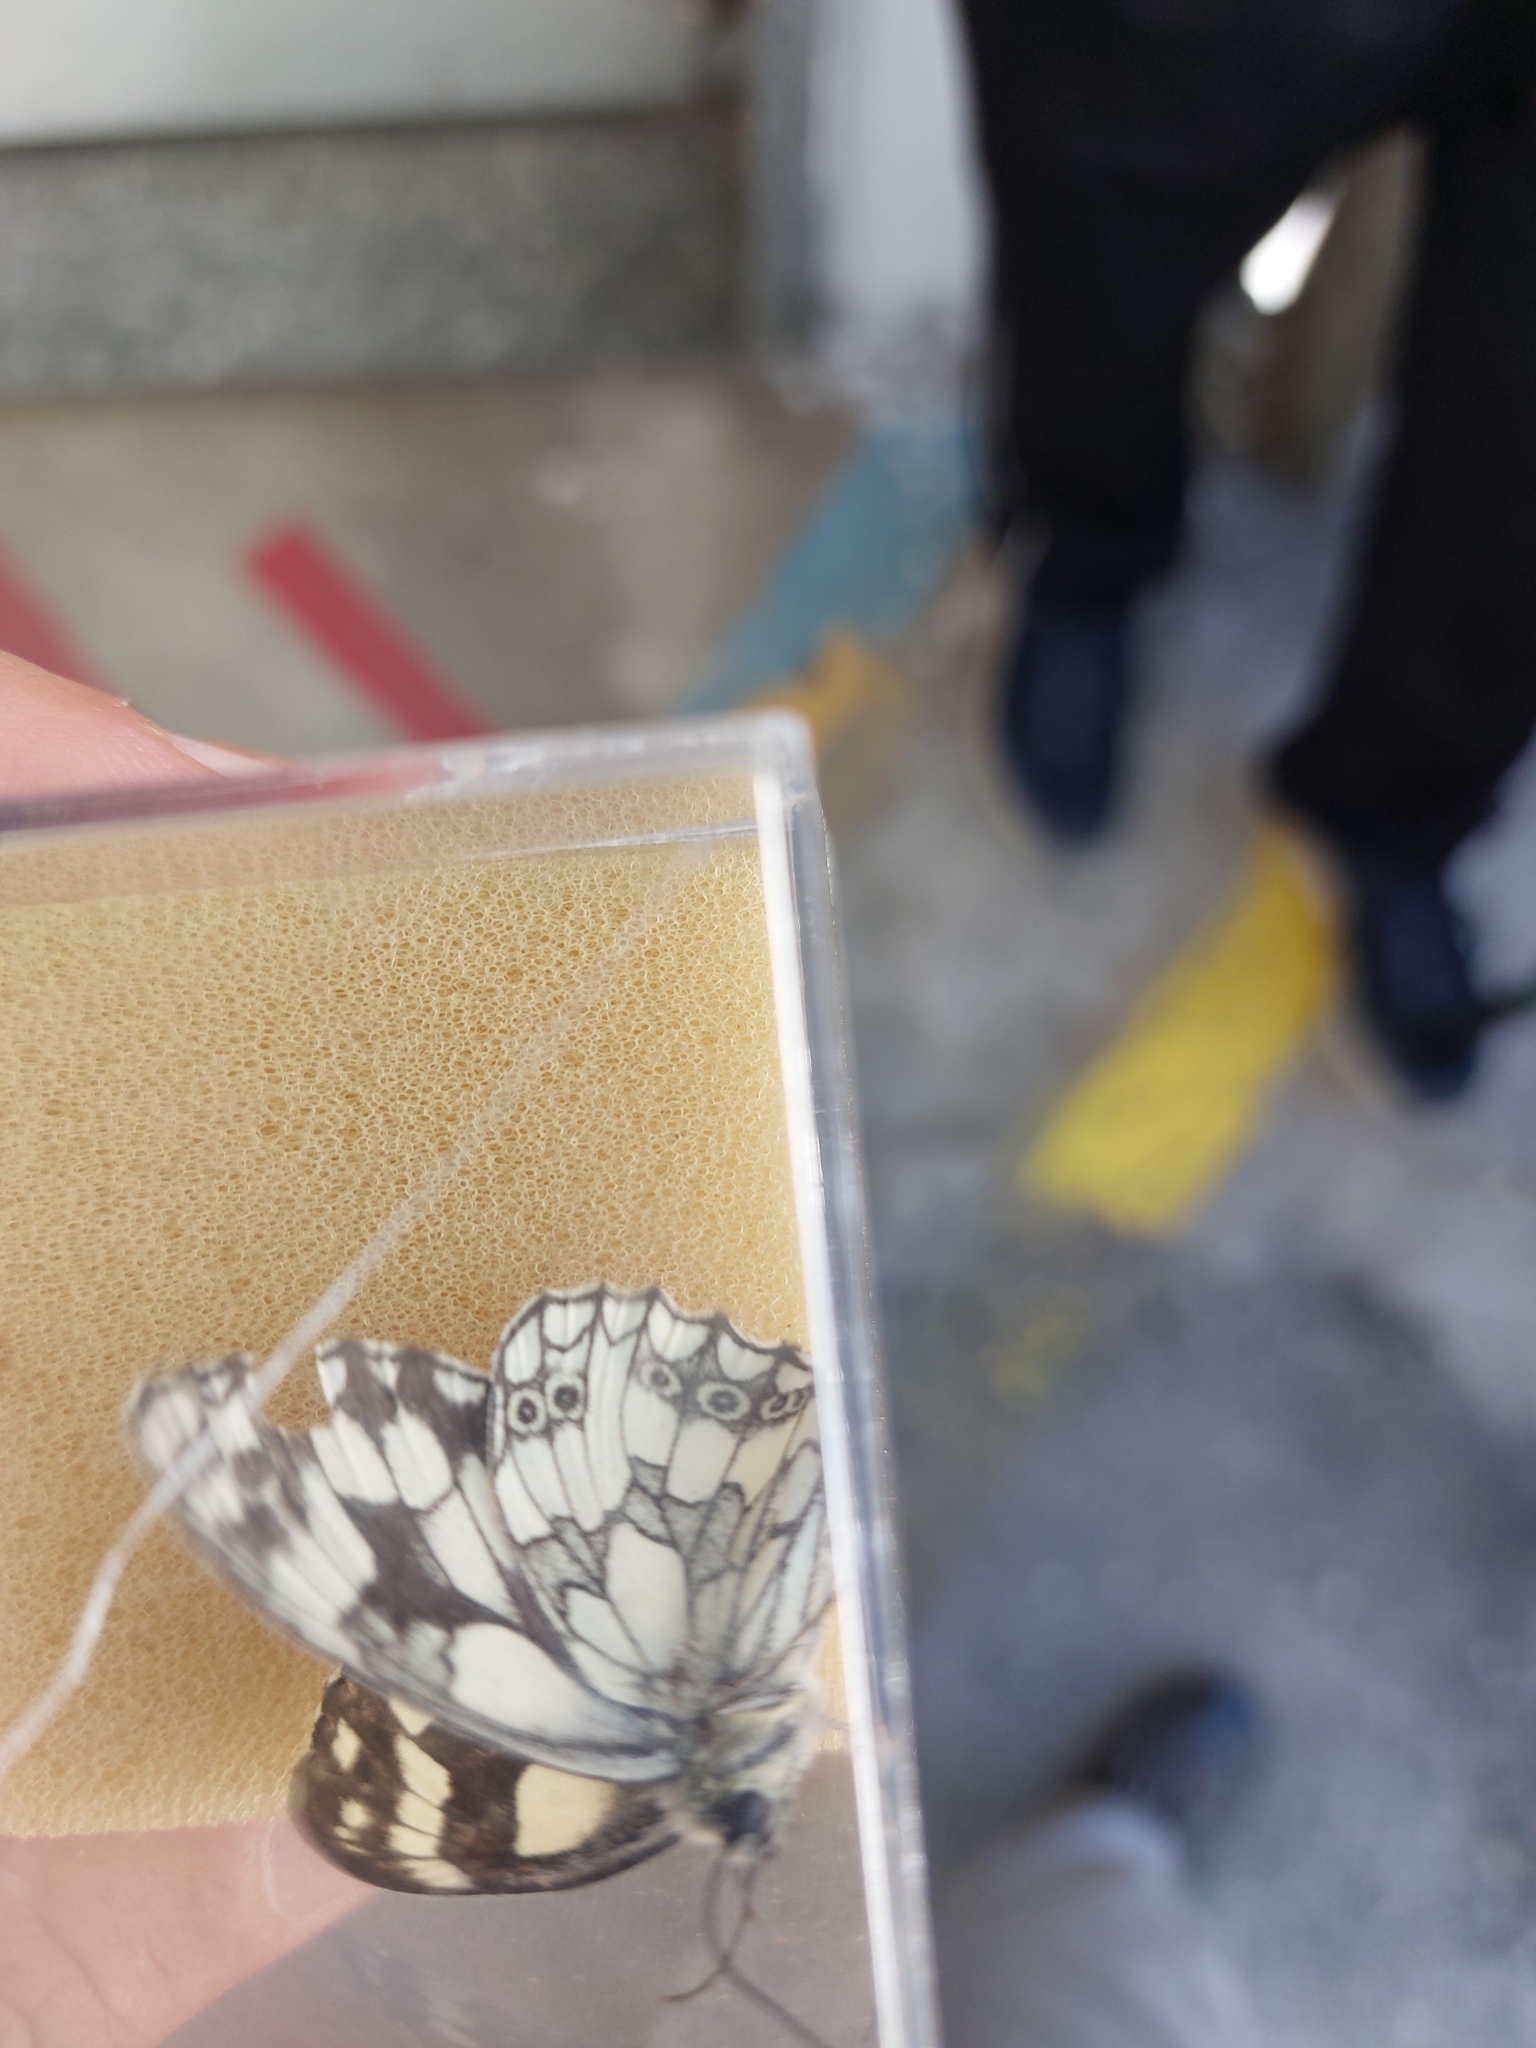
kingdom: Animalia
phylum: Arthropoda
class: Insecta
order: Lepidoptera
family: Nymphalidae
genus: Melanargia
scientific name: Melanargia galathea
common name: Marbled white
